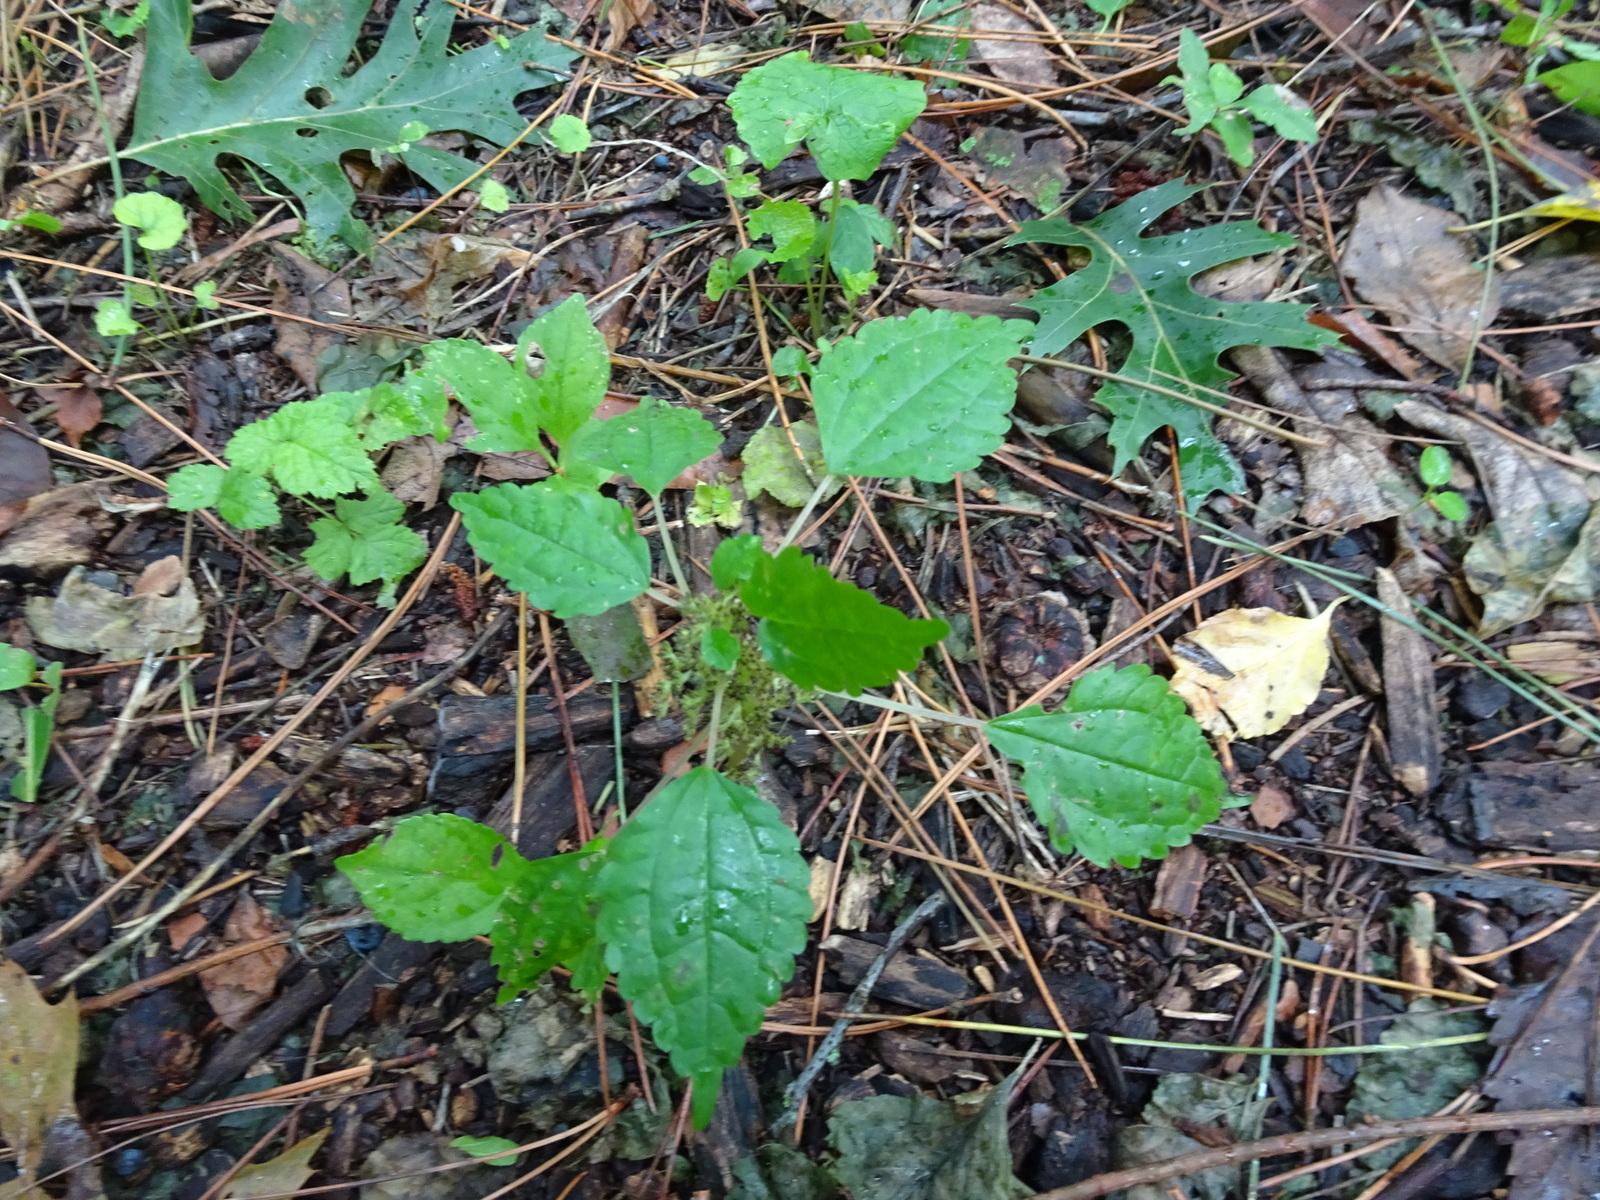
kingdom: Plantae
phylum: Tracheophyta
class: Magnoliopsida
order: Rosales
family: Urticaceae
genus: Pilea
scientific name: Pilea pumila
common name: Clearweed
